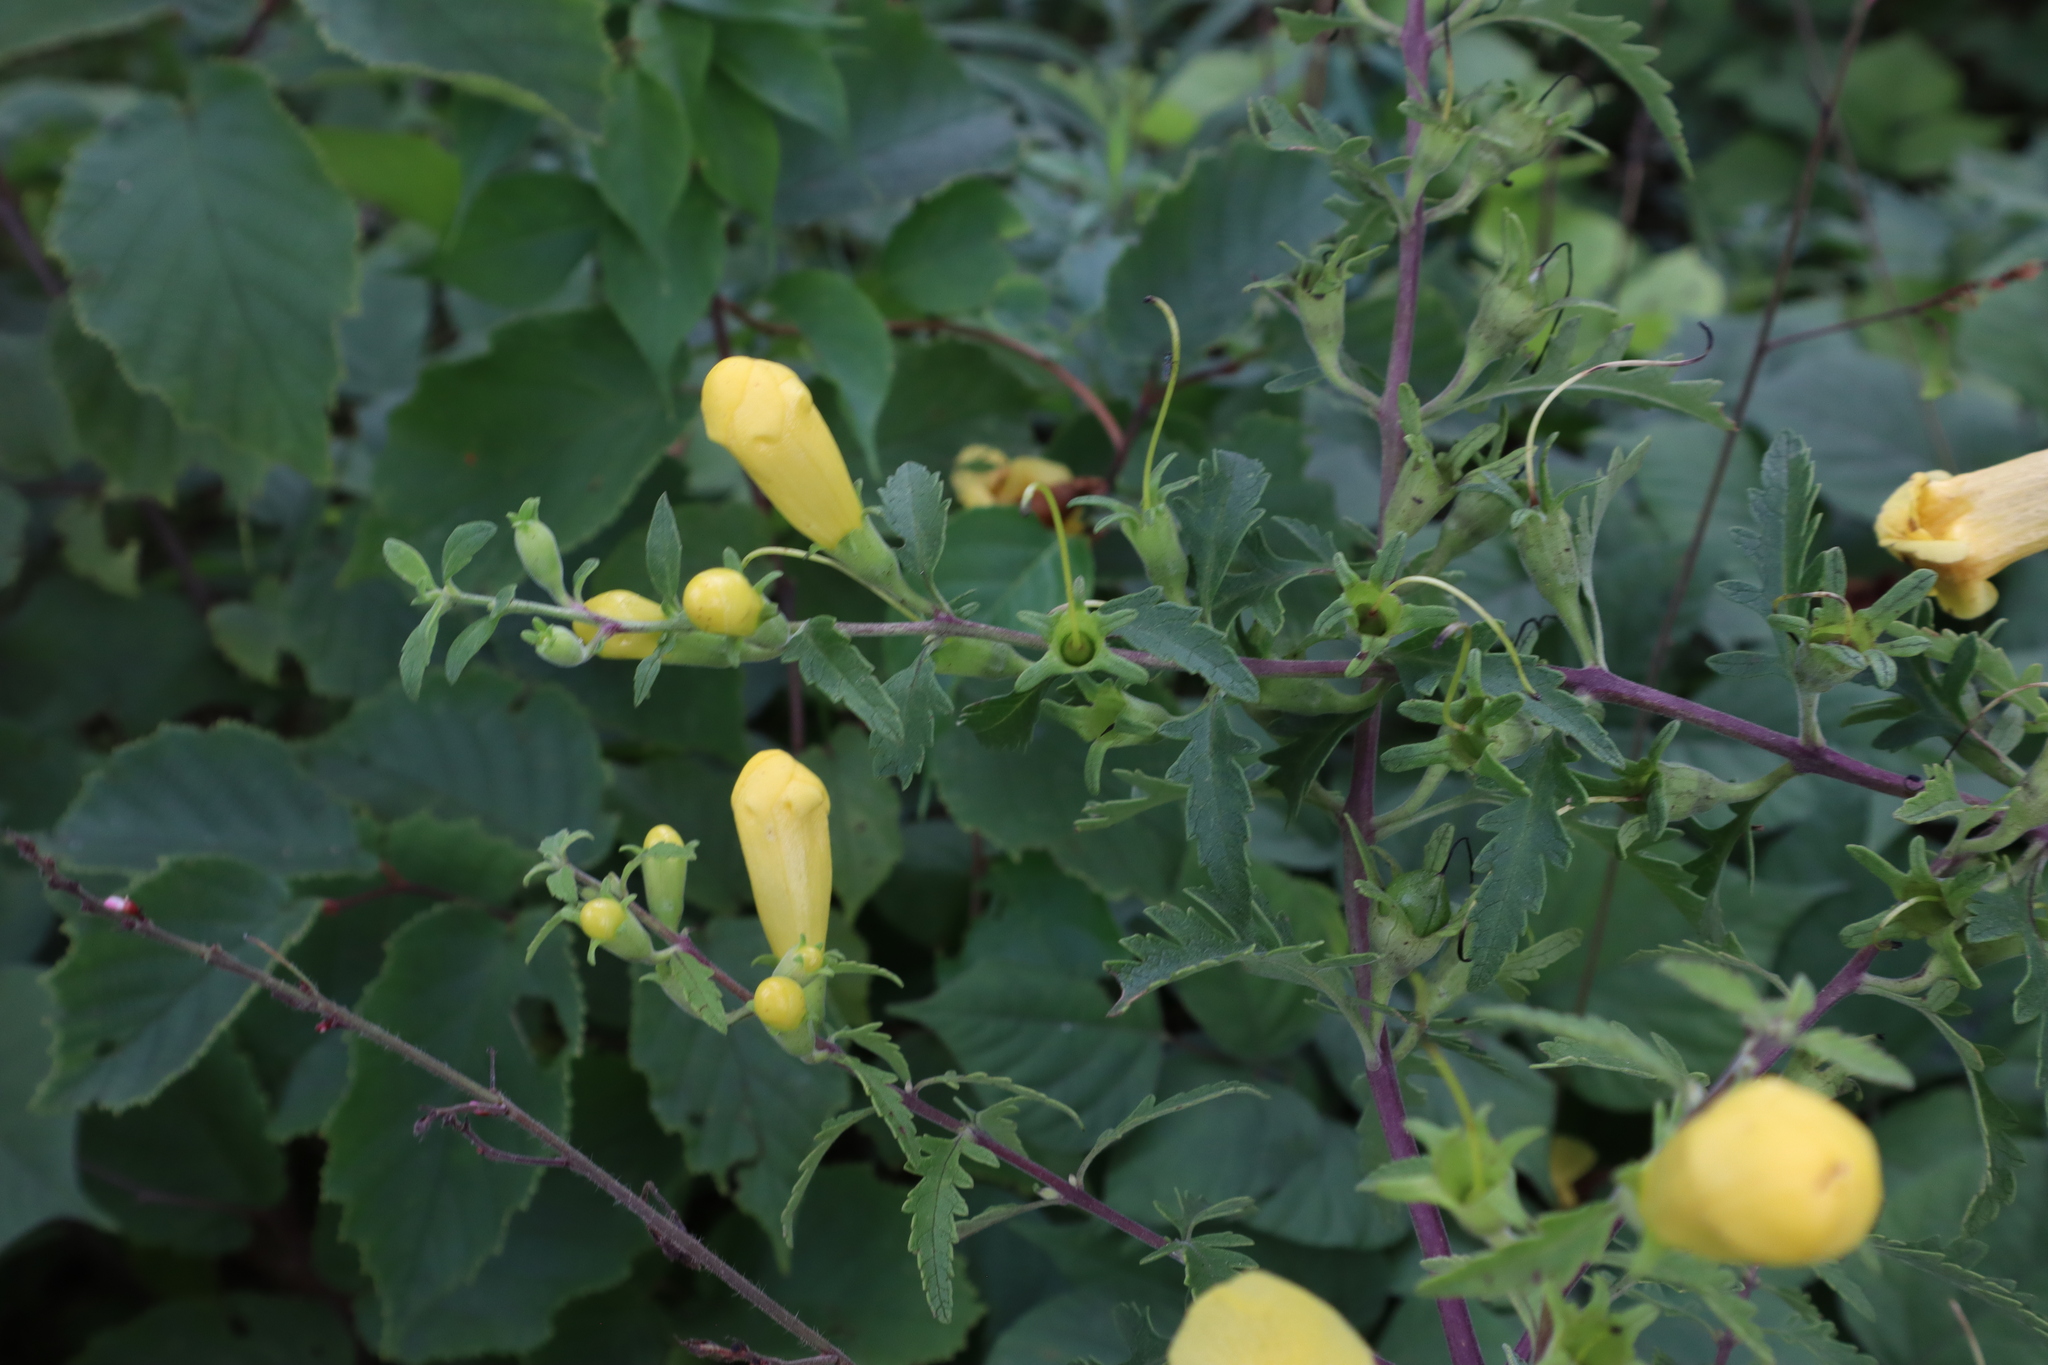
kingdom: Plantae
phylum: Tracheophyta
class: Magnoliopsida
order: Lamiales
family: Orobanchaceae
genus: Aureolaria
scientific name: Aureolaria grandiflora
